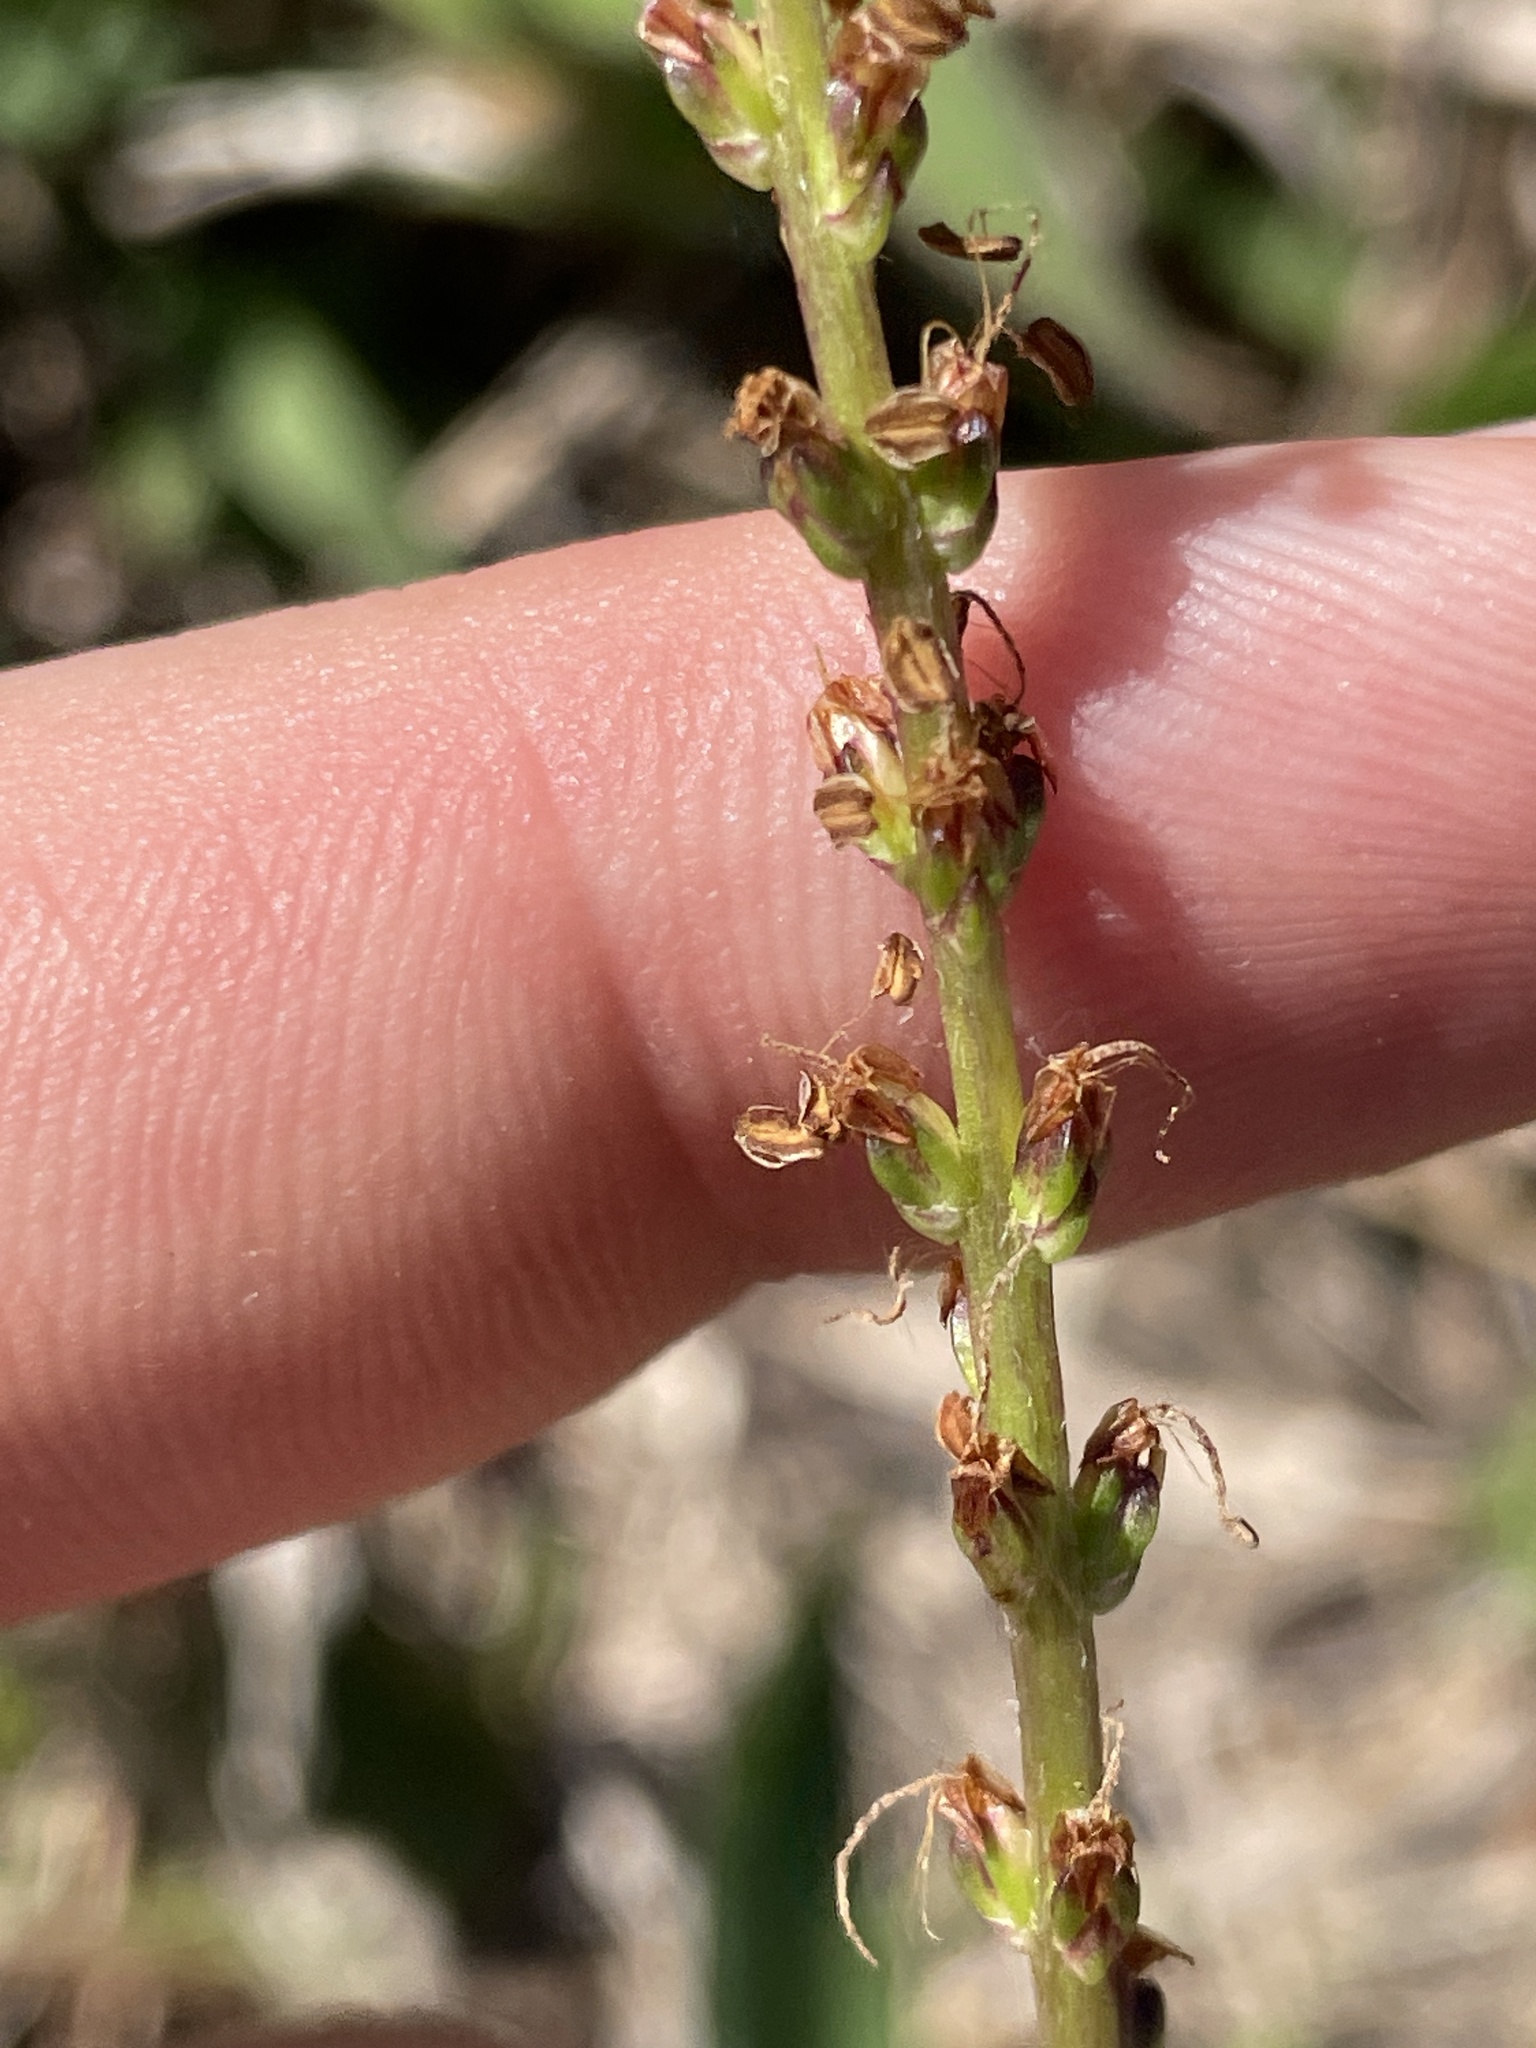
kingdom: Plantae
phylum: Tracheophyta
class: Magnoliopsida
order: Lamiales
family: Plantaginaceae
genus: Plantago
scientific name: Plantago sparsiflora
